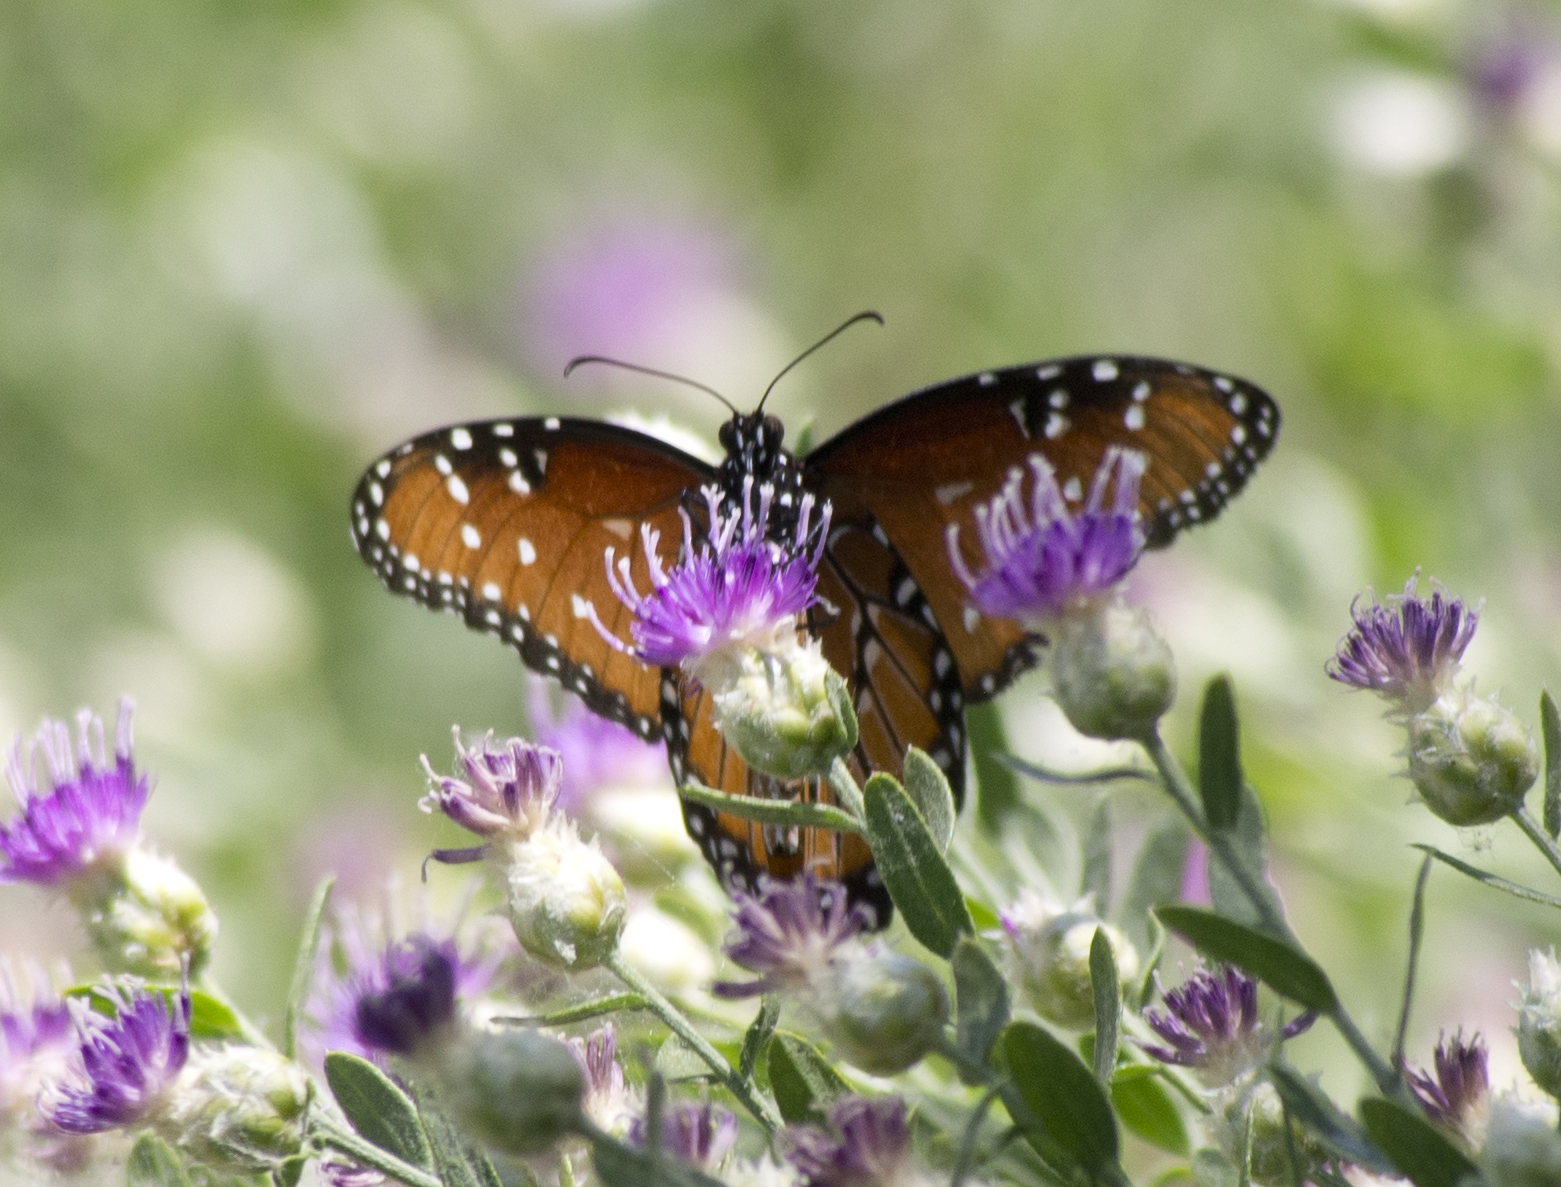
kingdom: Animalia
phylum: Arthropoda
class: Insecta
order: Lepidoptera
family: Nymphalidae
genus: Danaus
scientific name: Danaus gilippus
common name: Queen
